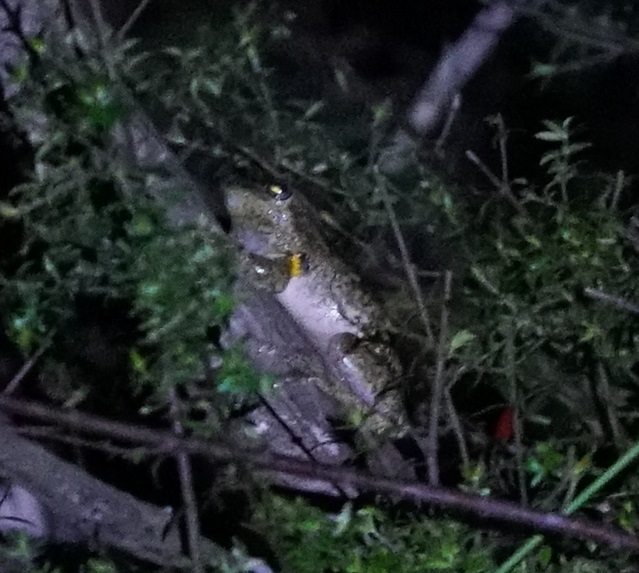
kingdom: Animalia
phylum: Chordata
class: Amphibia
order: Anura
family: Pelodryadidae
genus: Litoria
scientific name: Litoria peronii
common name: Emerald spotted treefrog
